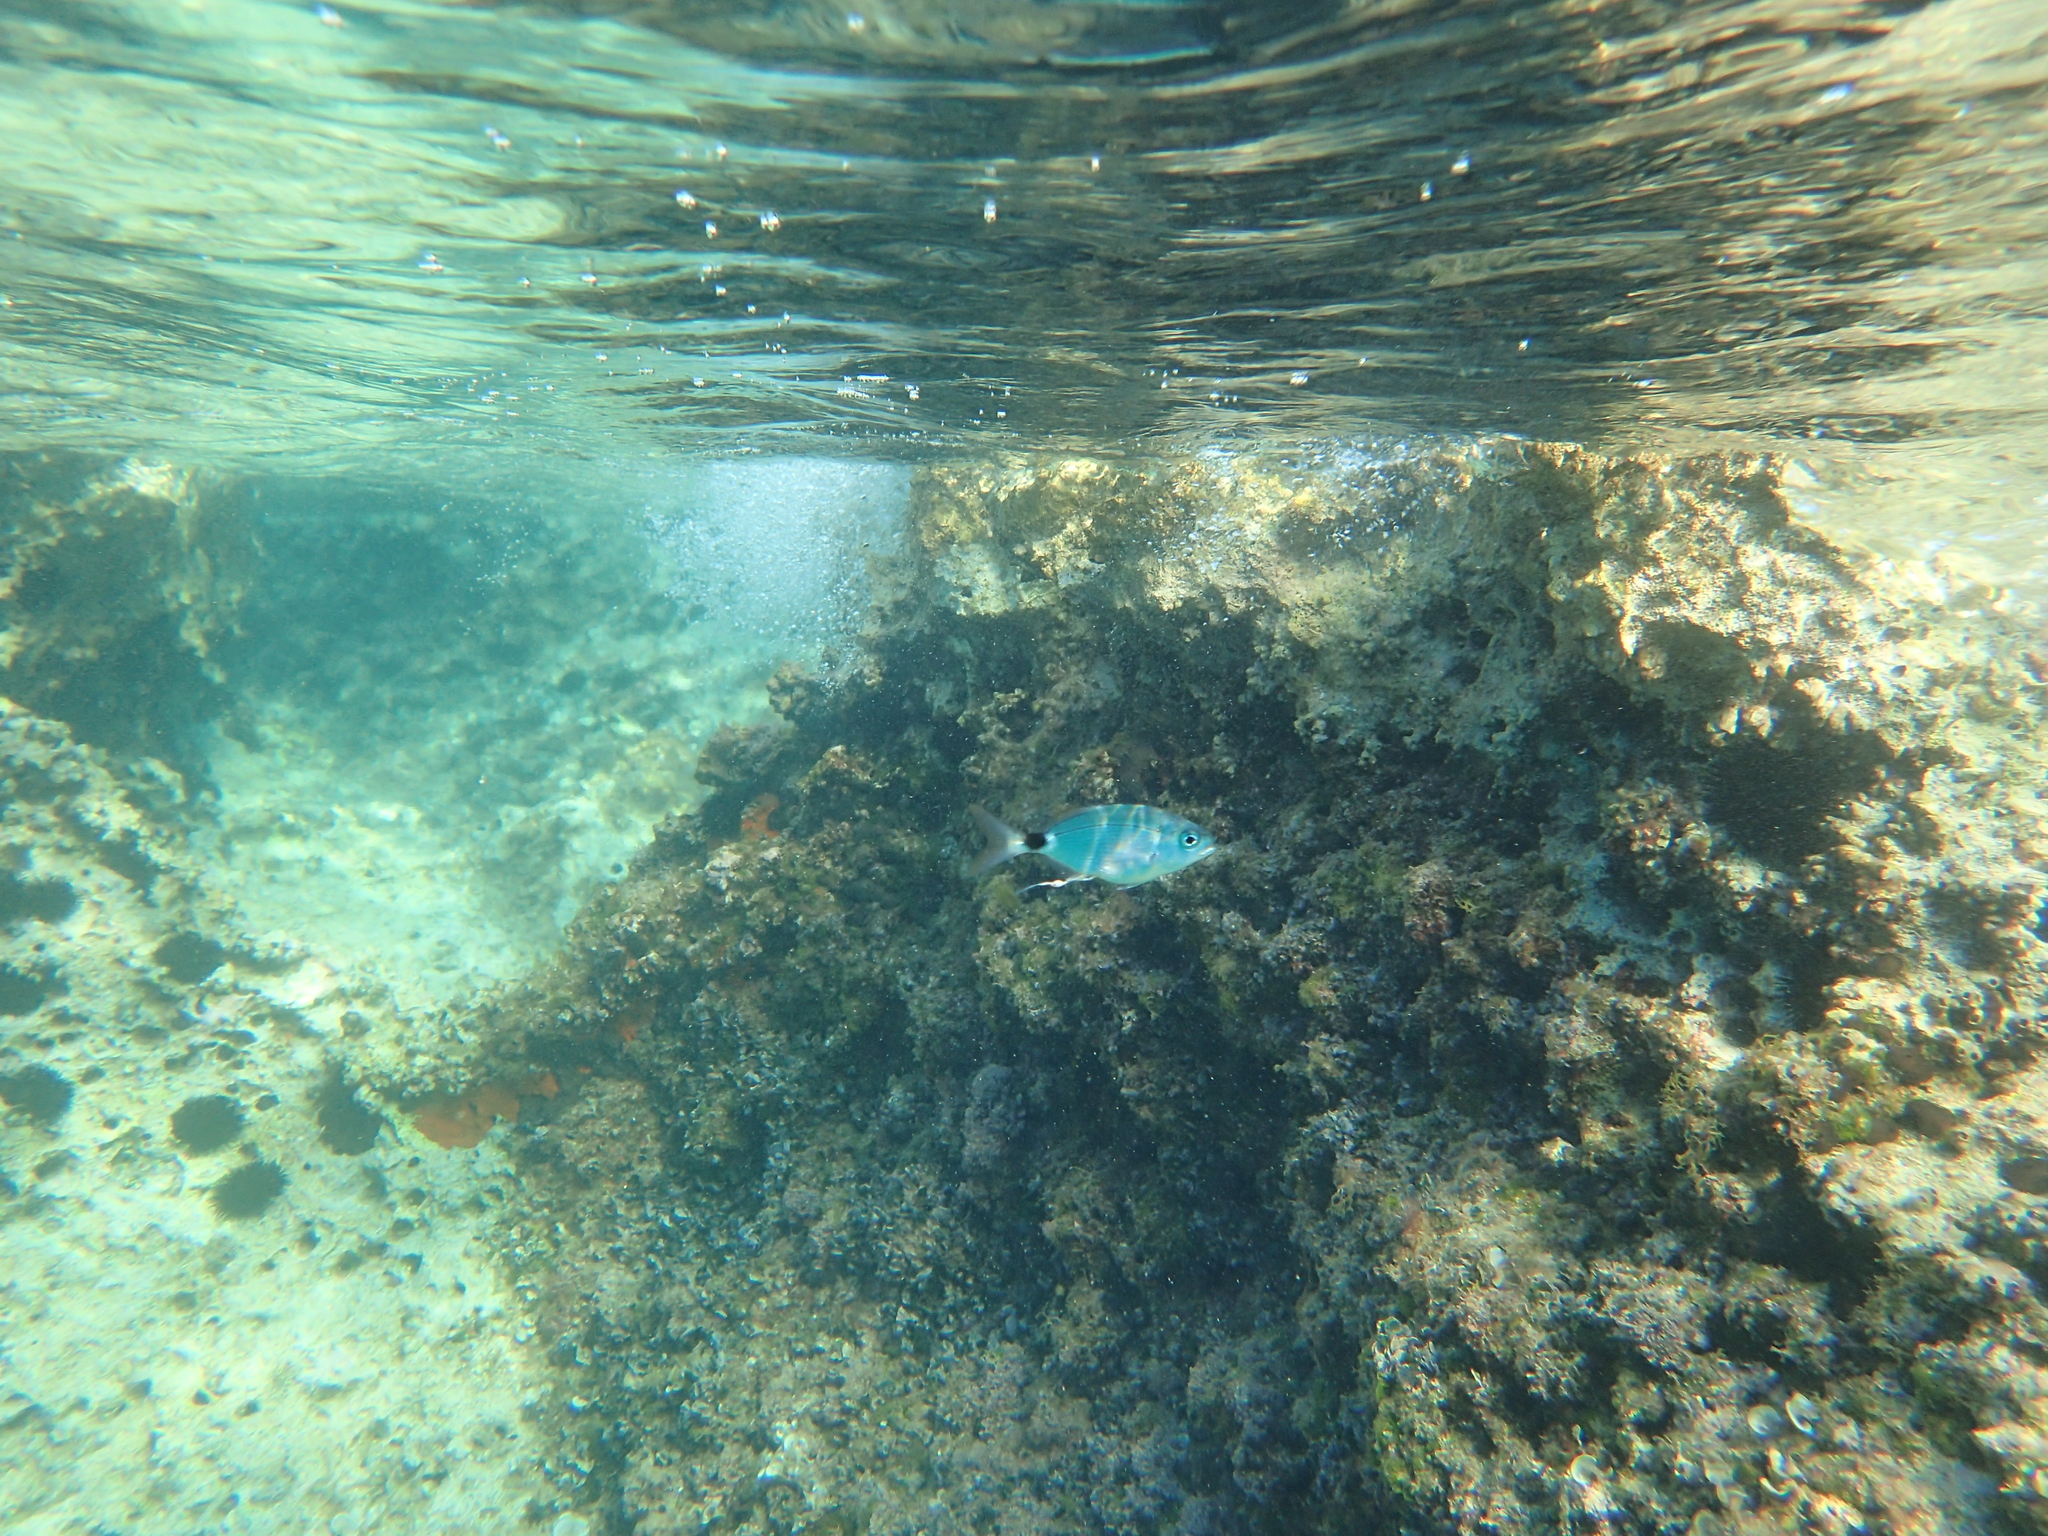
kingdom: Animalia
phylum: Chordata
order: Perciformes
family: Sparidae
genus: Oblada
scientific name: Oblada melanura
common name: Saddled seabream
